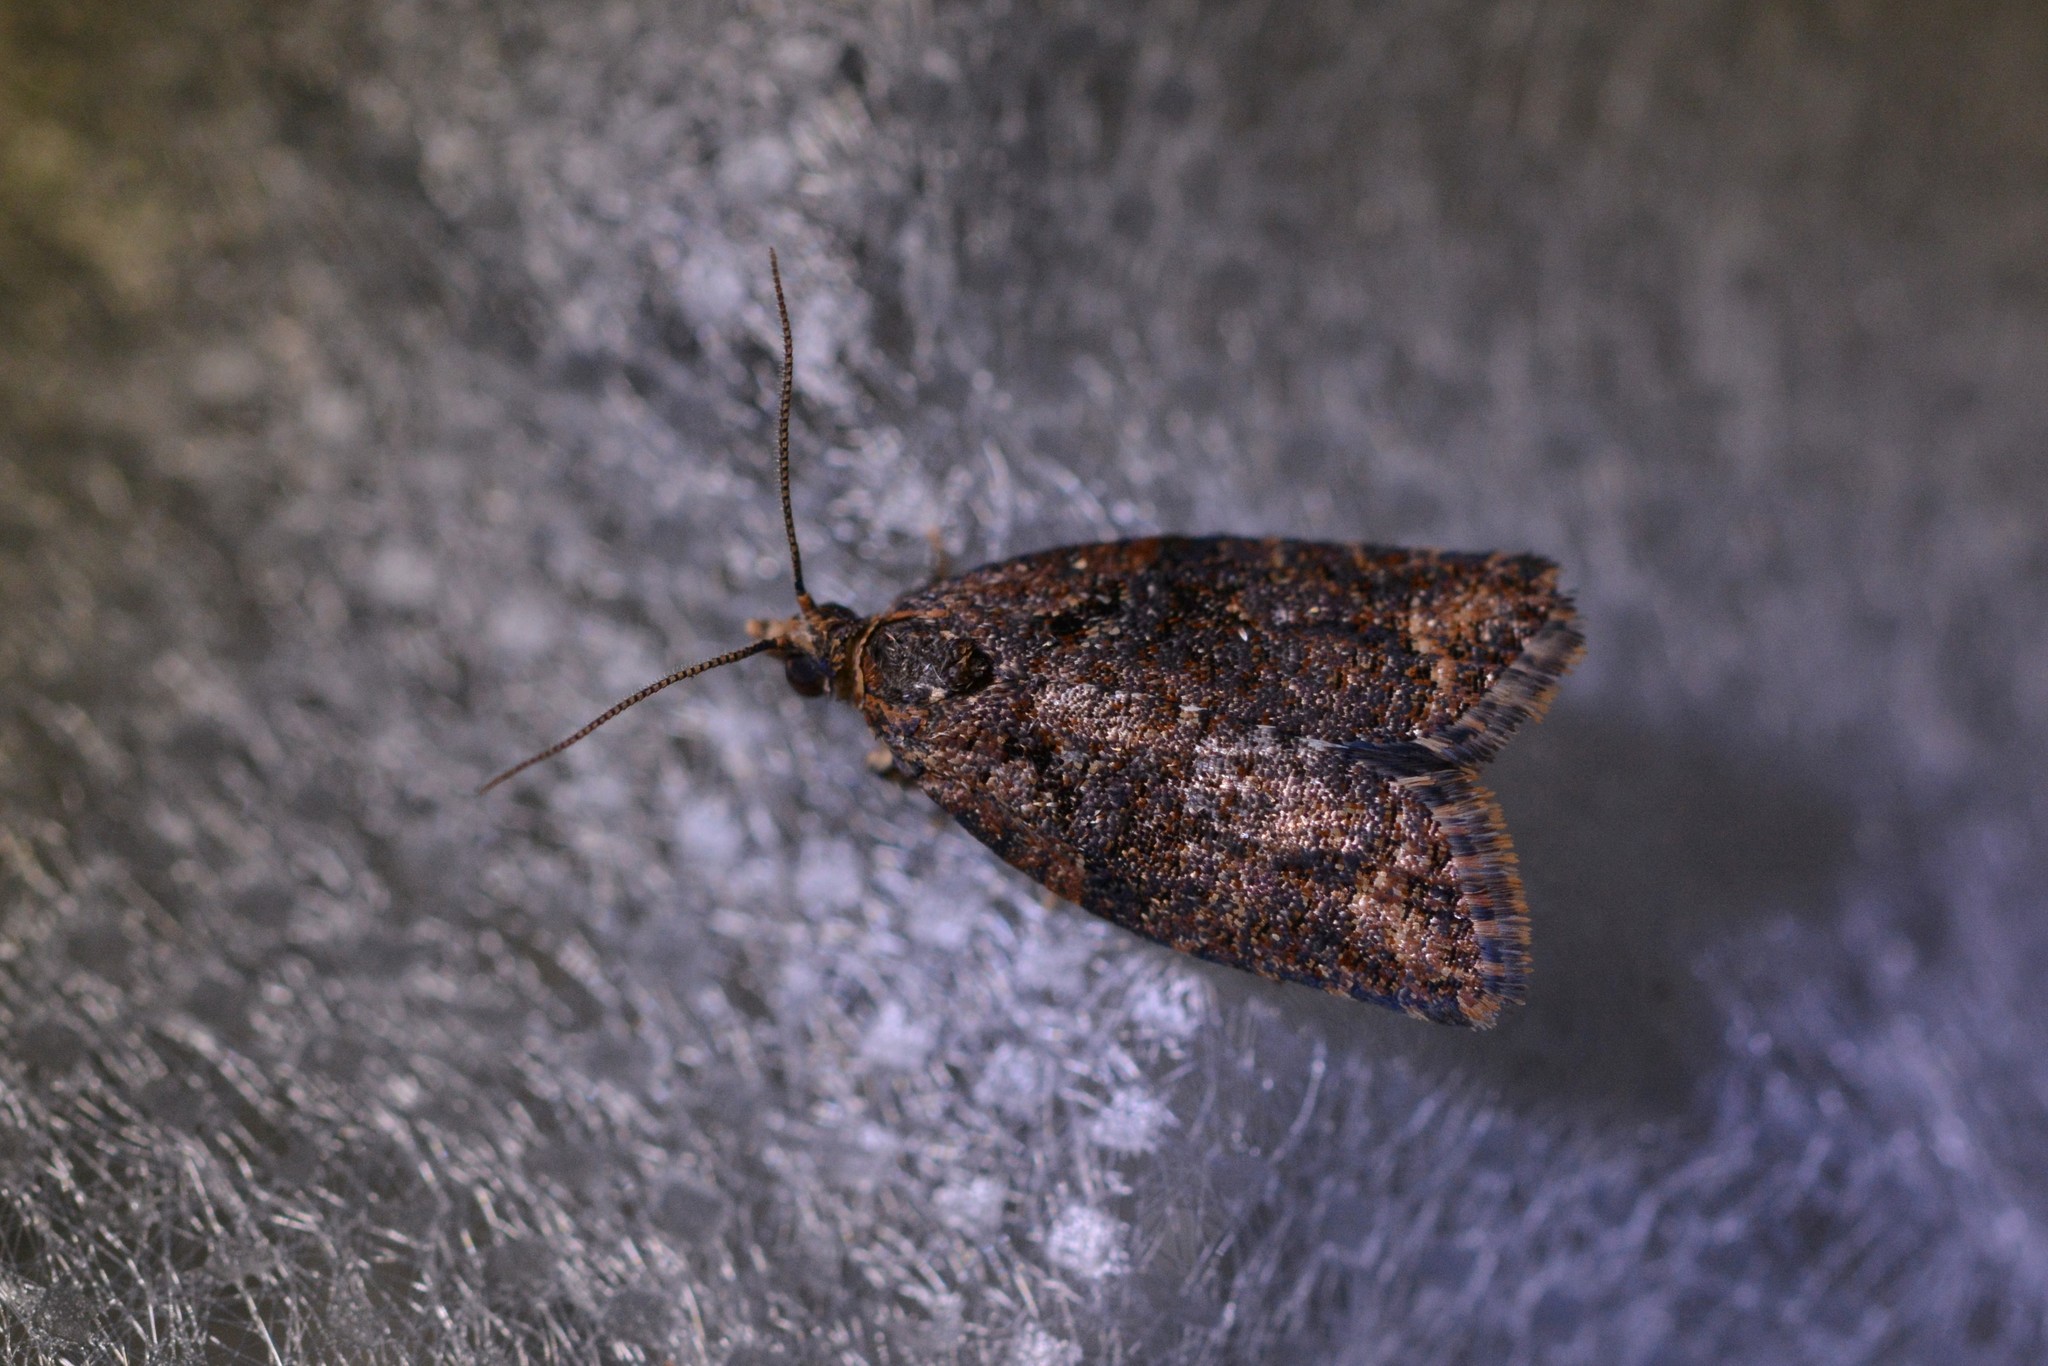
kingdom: Animalia
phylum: Arthropoda
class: Insecta
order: Lepidoptera
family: Tortricidae
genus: Capua
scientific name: Capua intractana
